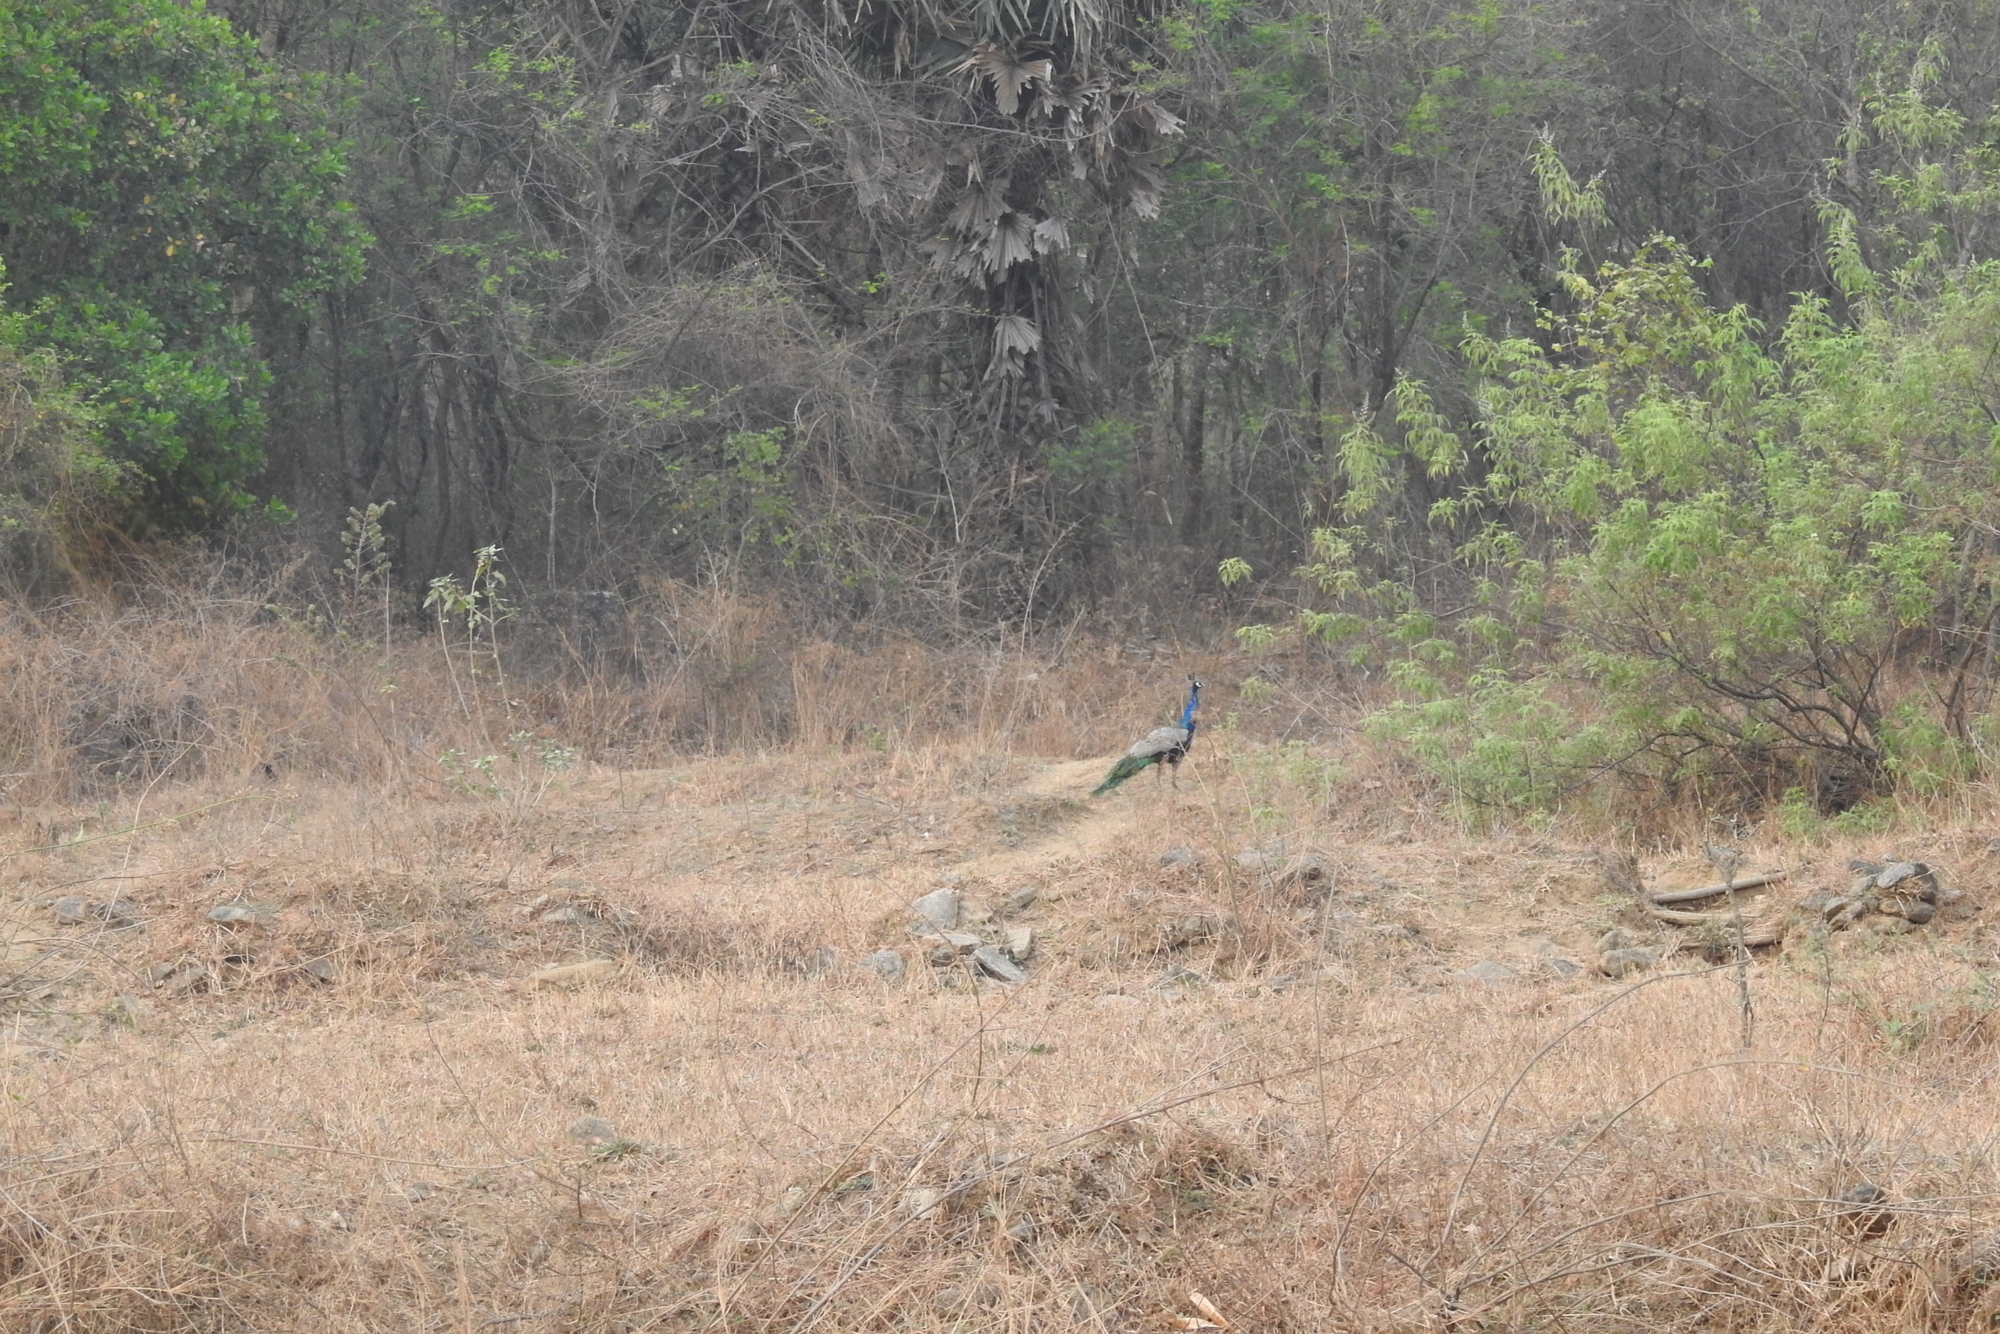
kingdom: Animalia
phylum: Chordata
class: Aves
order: Galliformes
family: Phasianidae
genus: Pavo
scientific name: Pavo cristatus
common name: Indian peafowl
